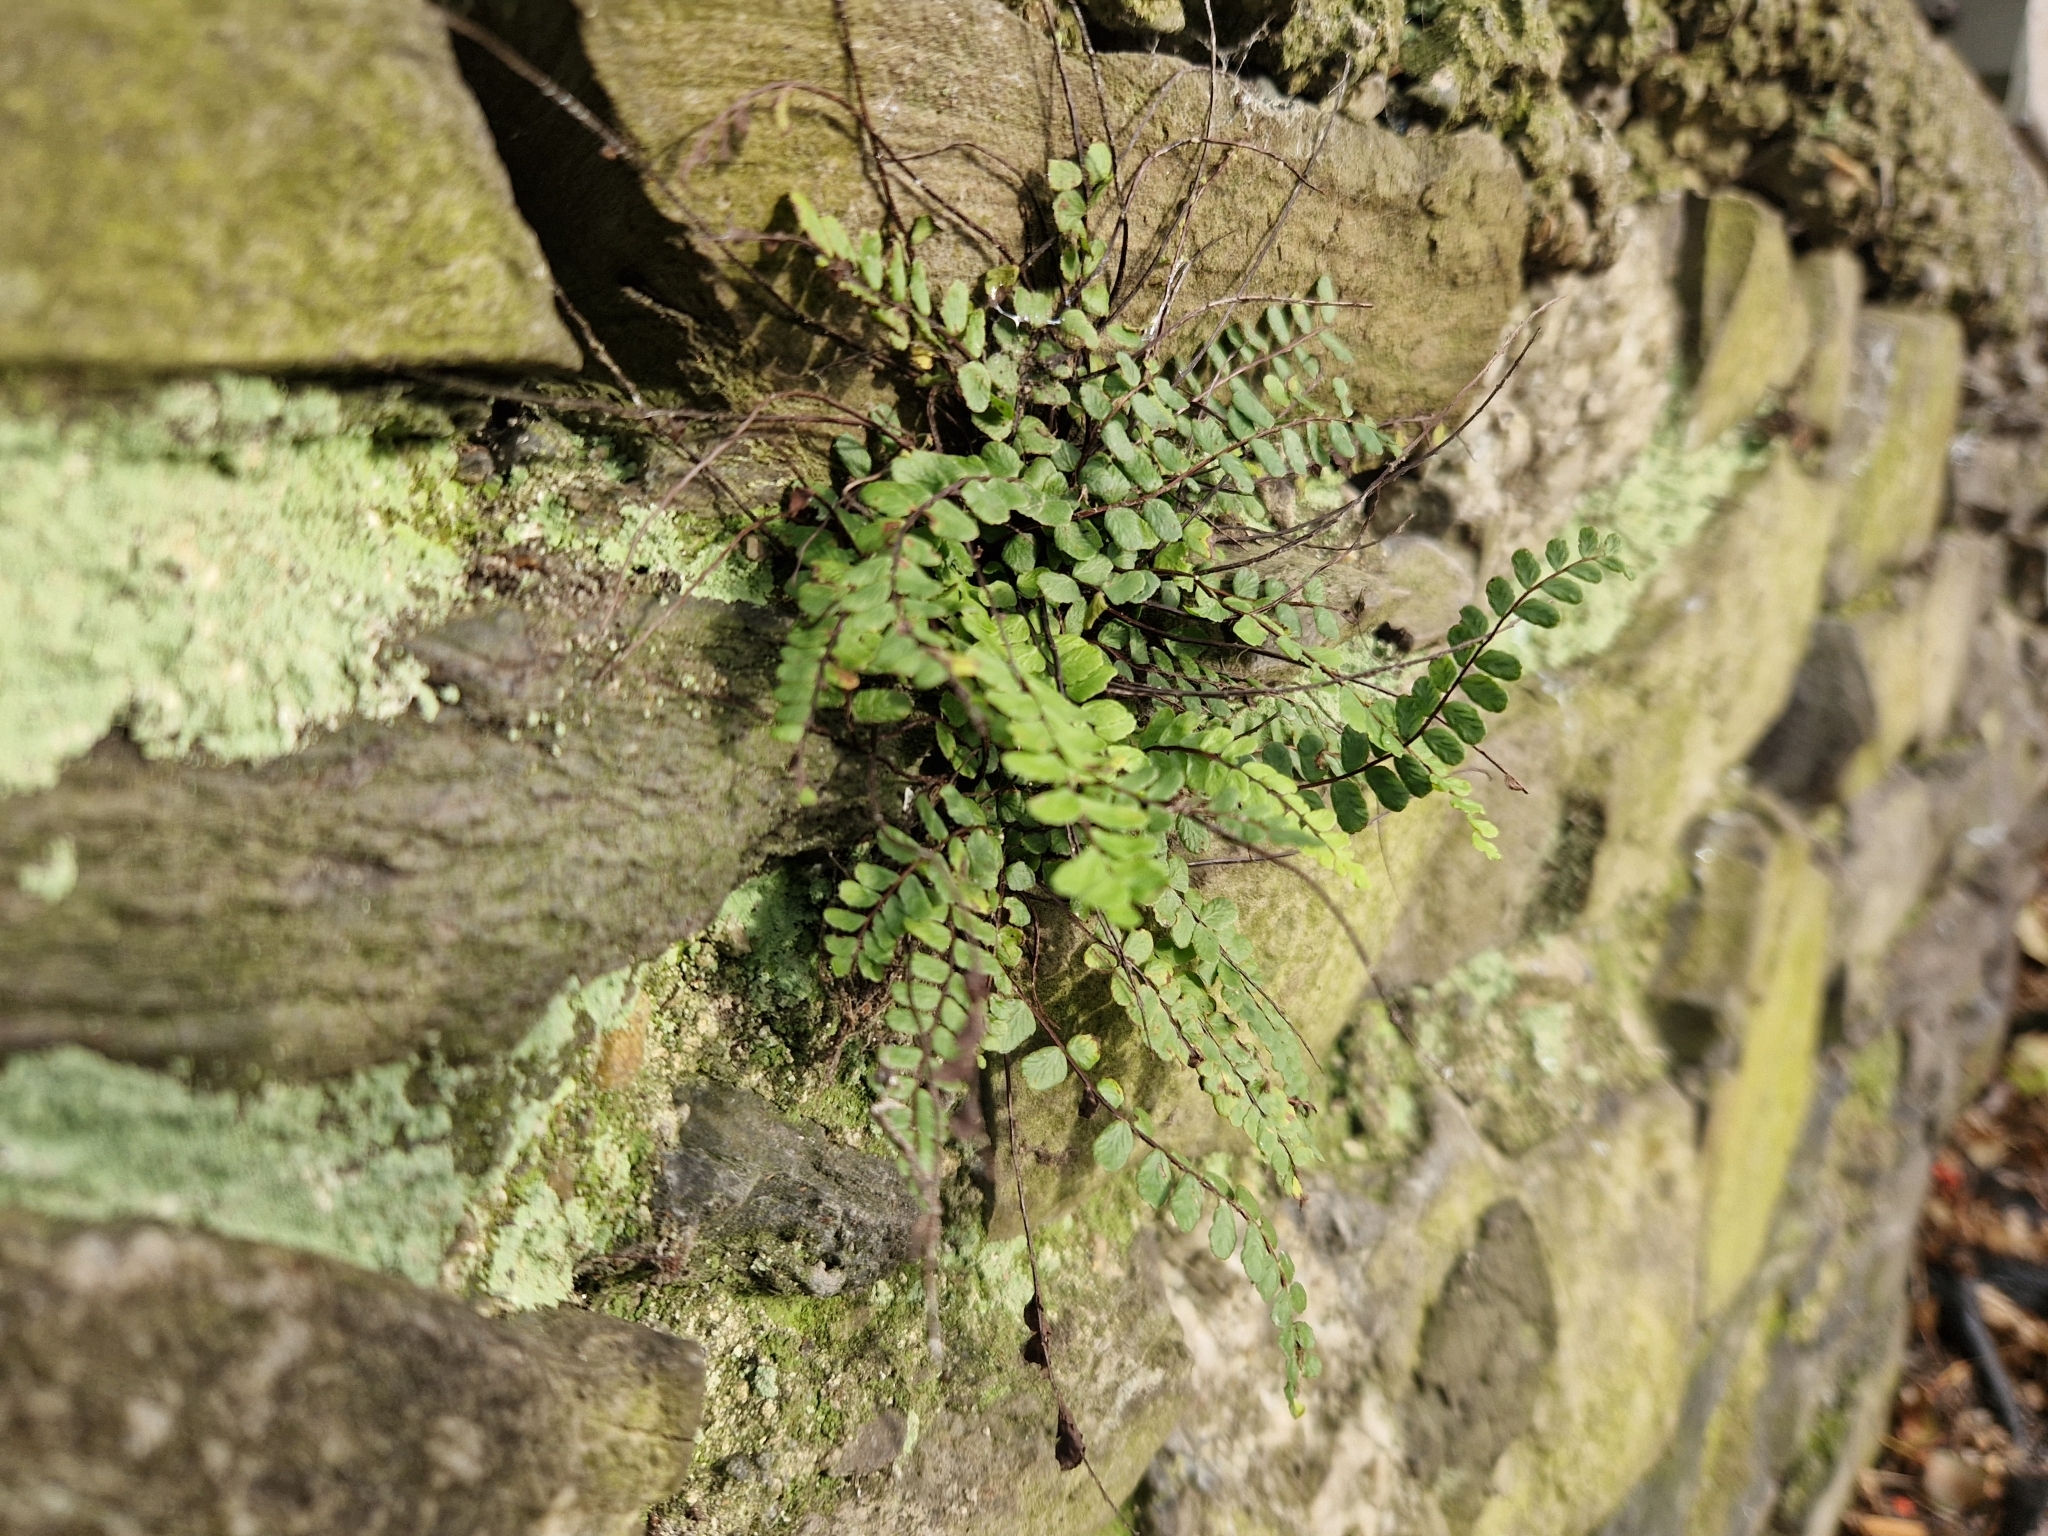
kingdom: Plantae
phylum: Tracheophyta
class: Polypodiopsida
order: Polypodiales
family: Aspleniaceae
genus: Asplenium
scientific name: Asplenium trichomanes
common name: Maidenhair spleenwort
